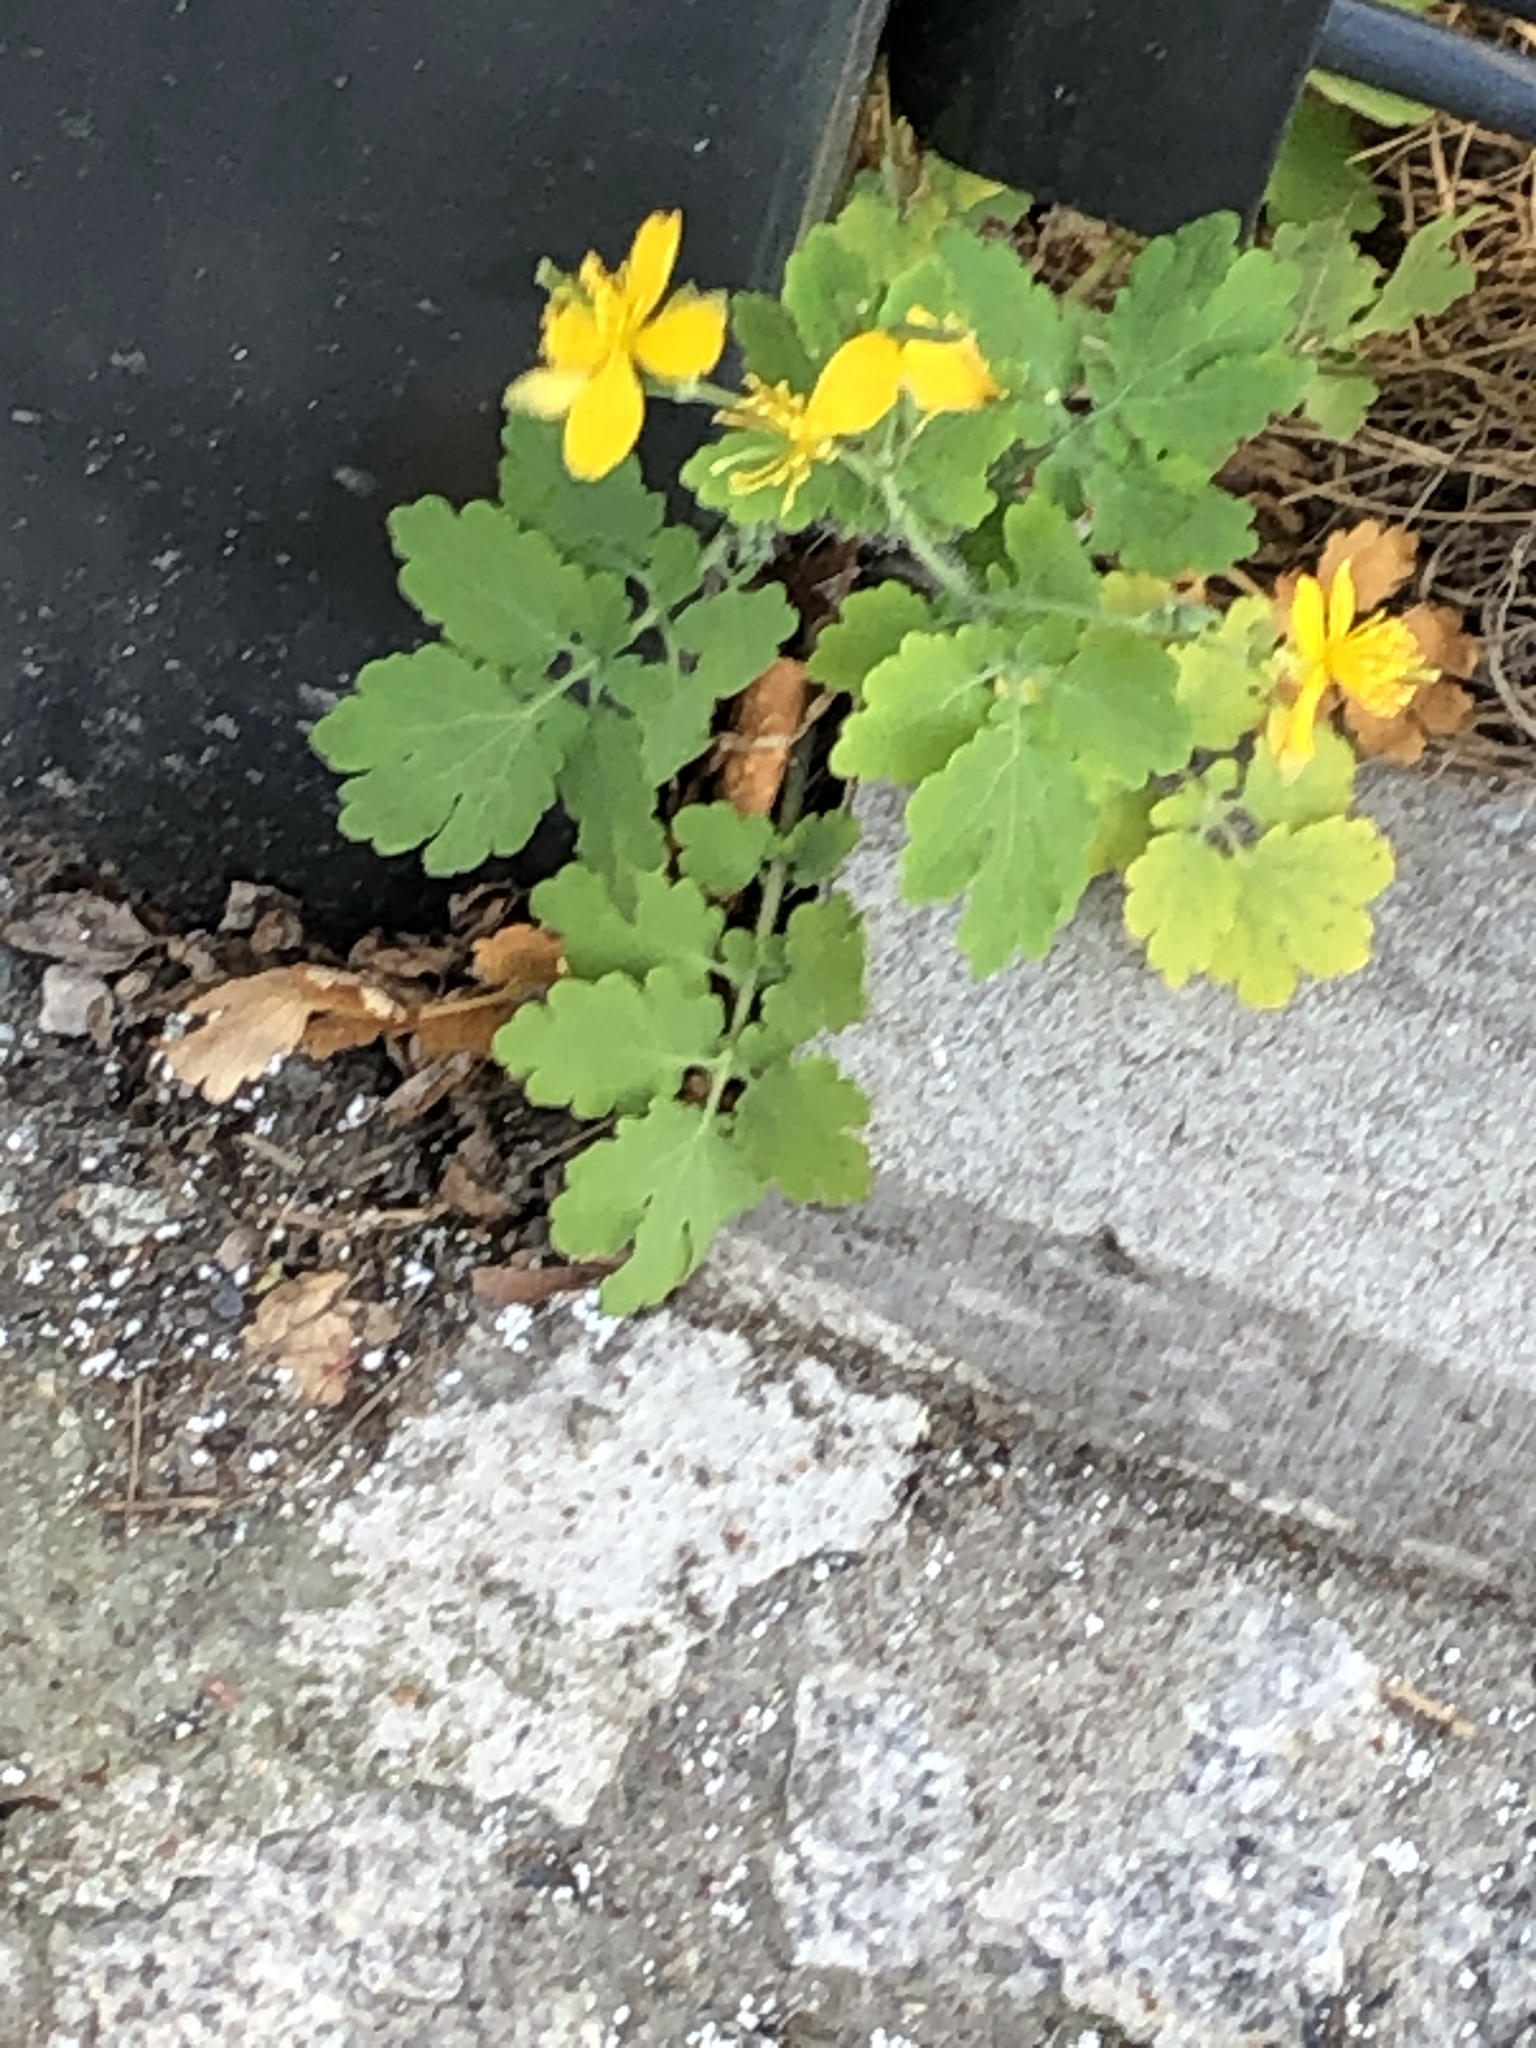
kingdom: Plantae
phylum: Tracheophyta
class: Magnoliopsida
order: Ranunculales
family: Papaveraceae
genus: Chelidonium
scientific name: Chelidonium majus
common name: Greater celandine
